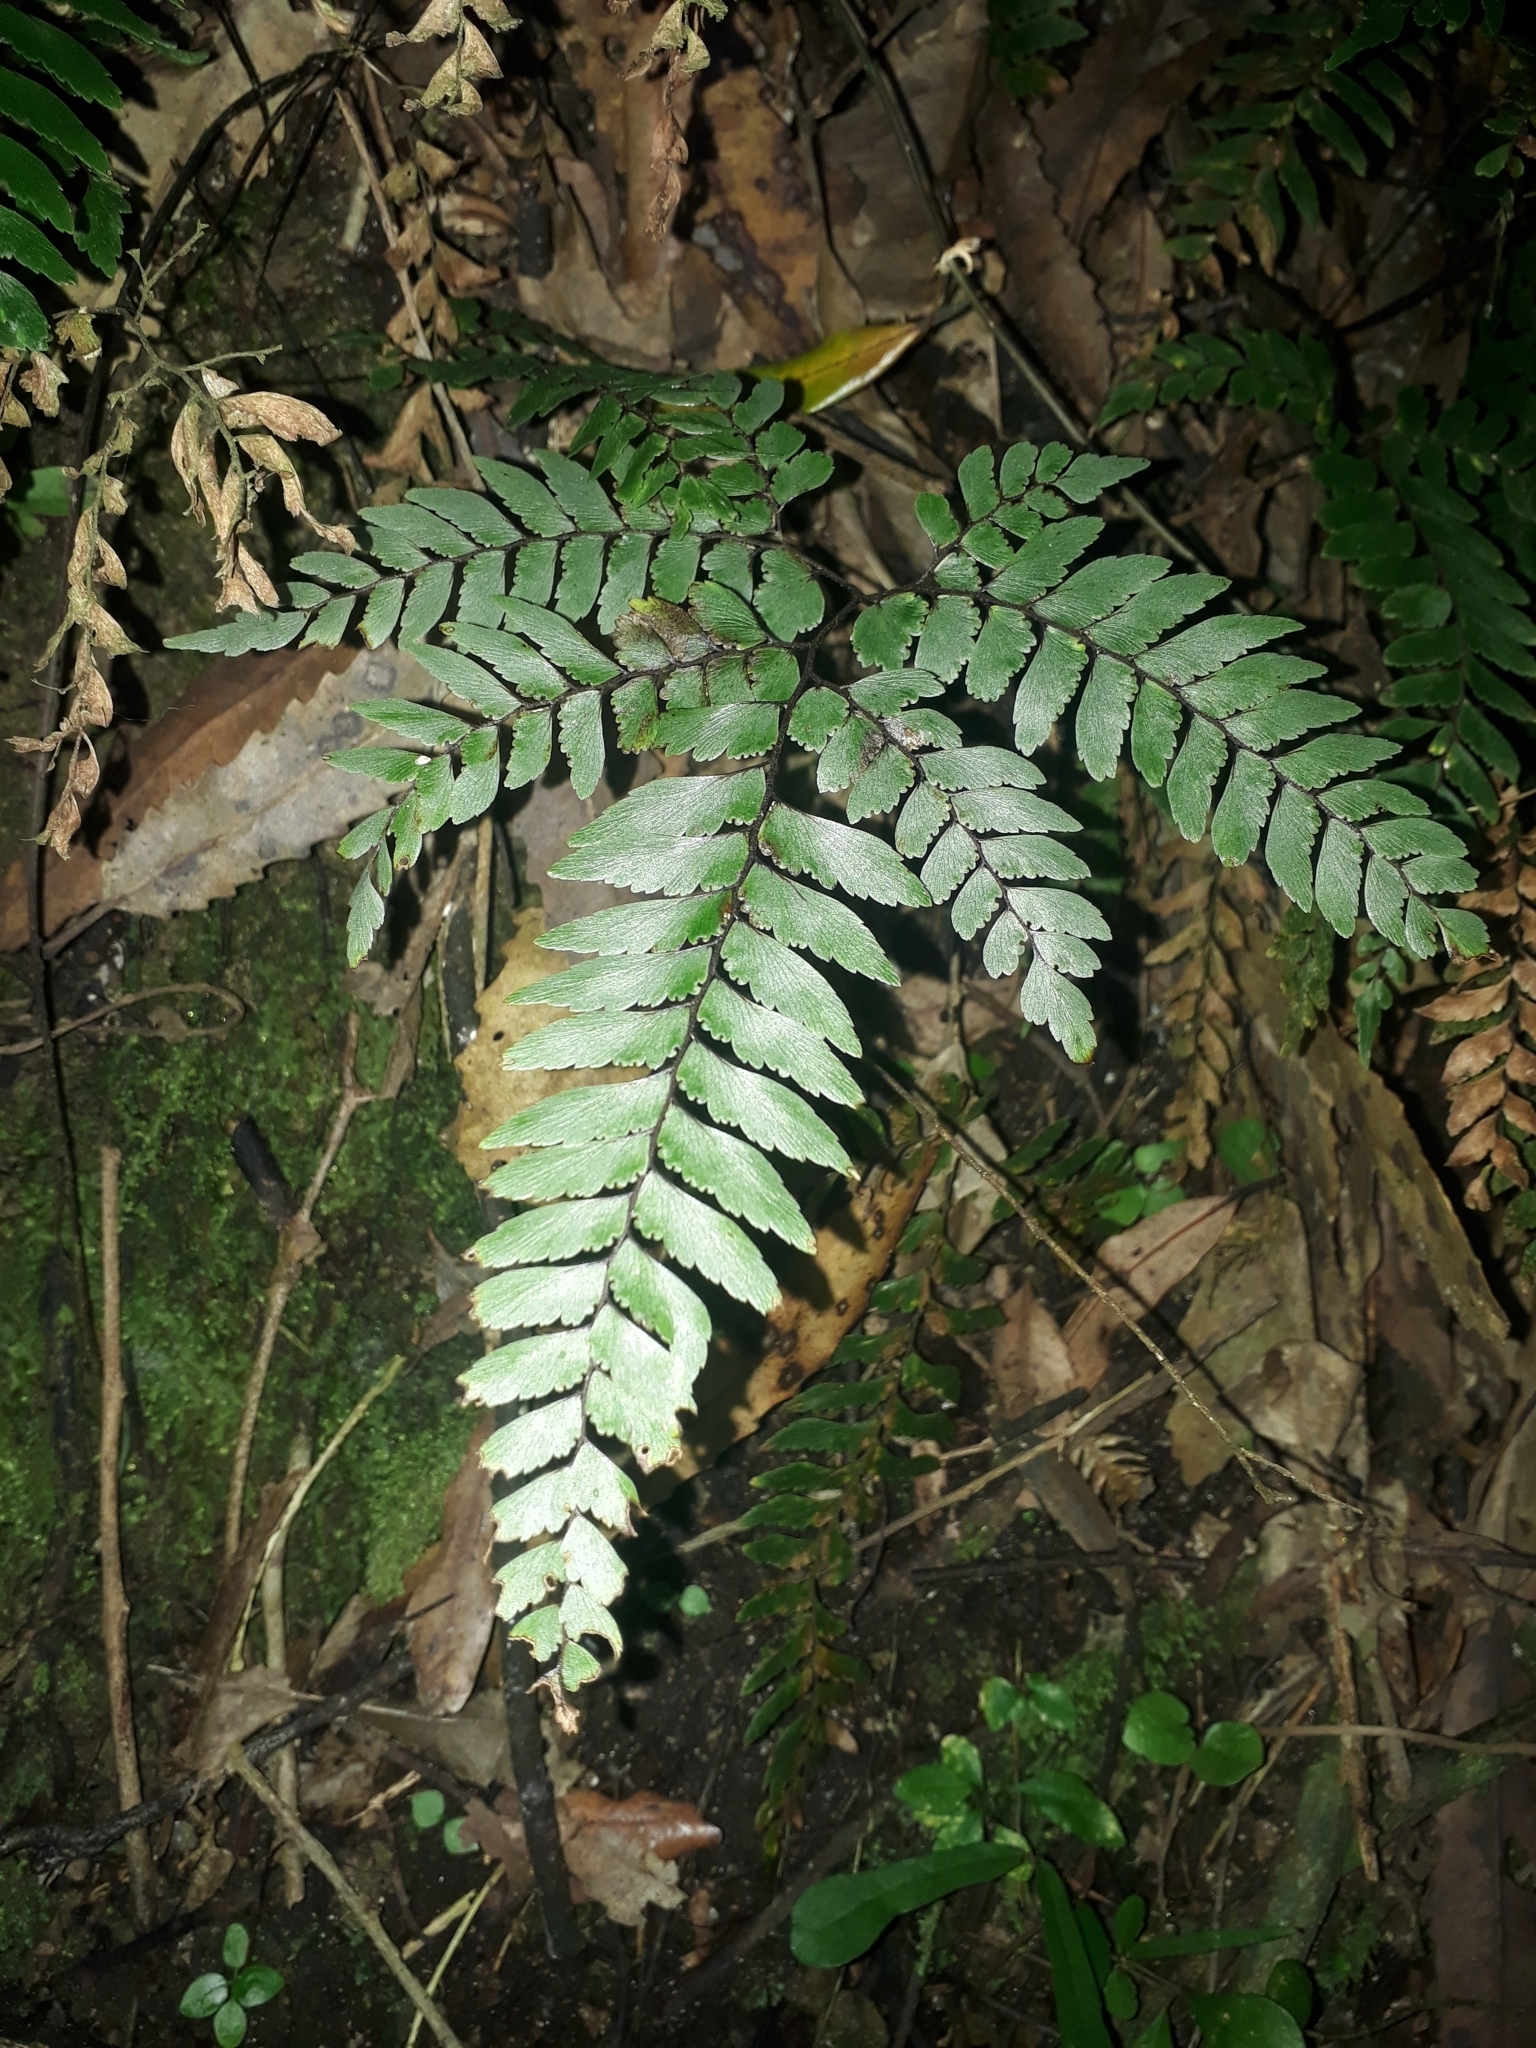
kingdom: Plantae
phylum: Tracheophyta
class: Polypodiopsida
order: Polypodiales
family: Pteridaceae
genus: Adiantum
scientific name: Adiantum fulvum
